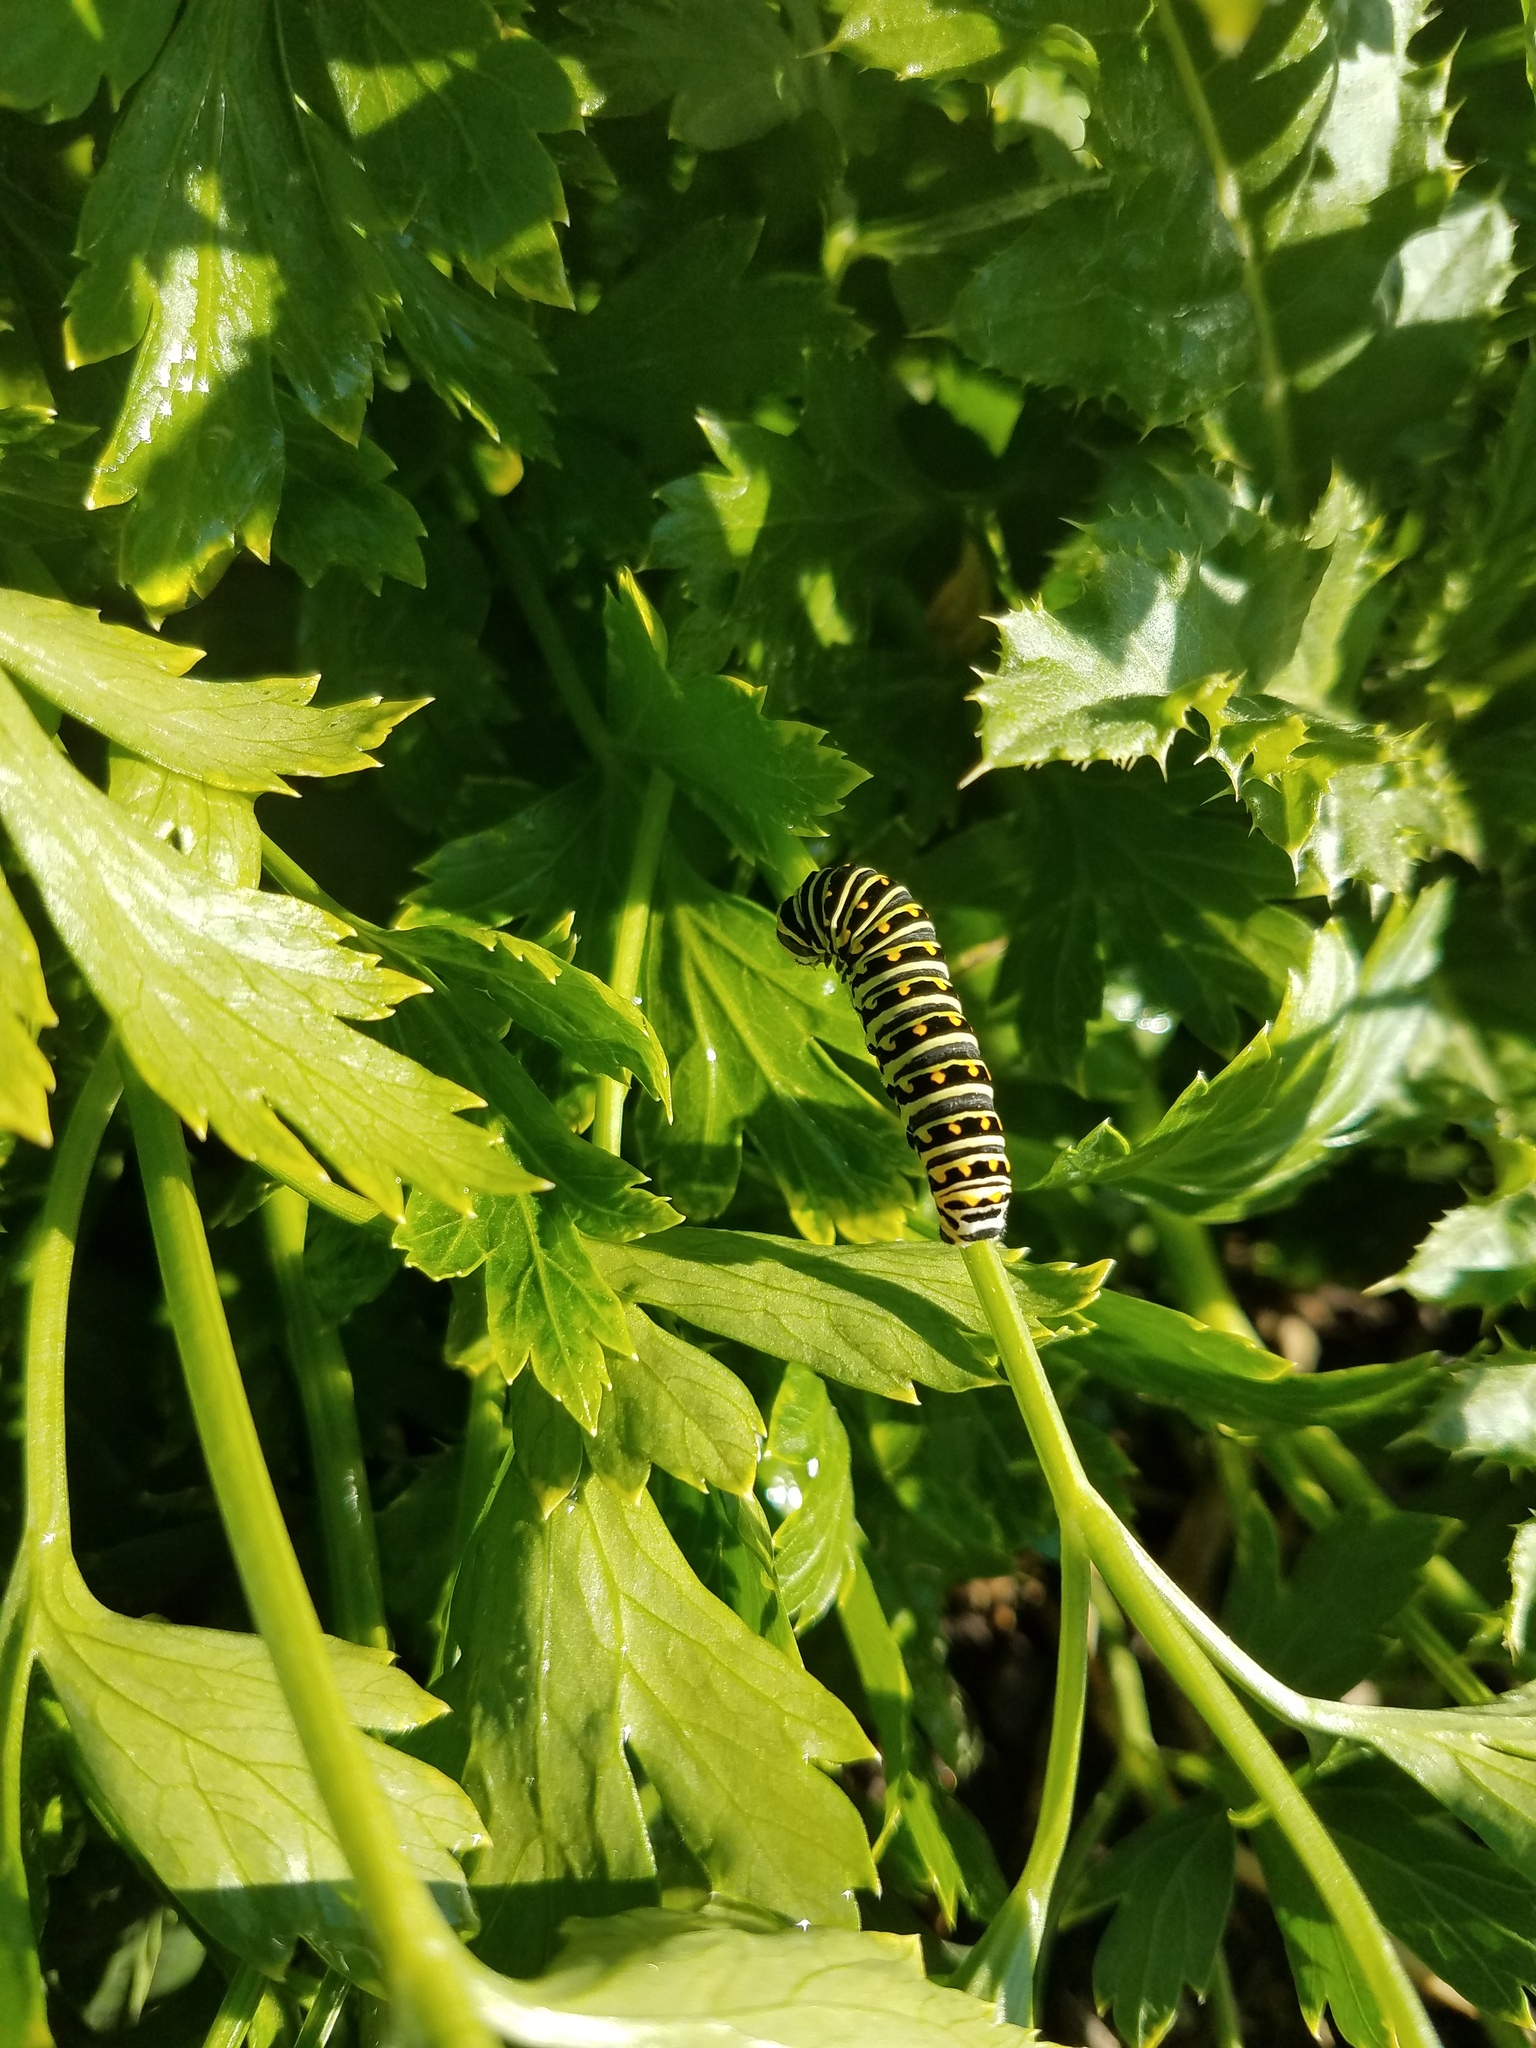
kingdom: Animalia
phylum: Arthropoda
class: Insecta
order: Lepidoptera
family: Papilionidae
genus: Papilio
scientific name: Papilio polyxenes
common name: Black swallowtail
